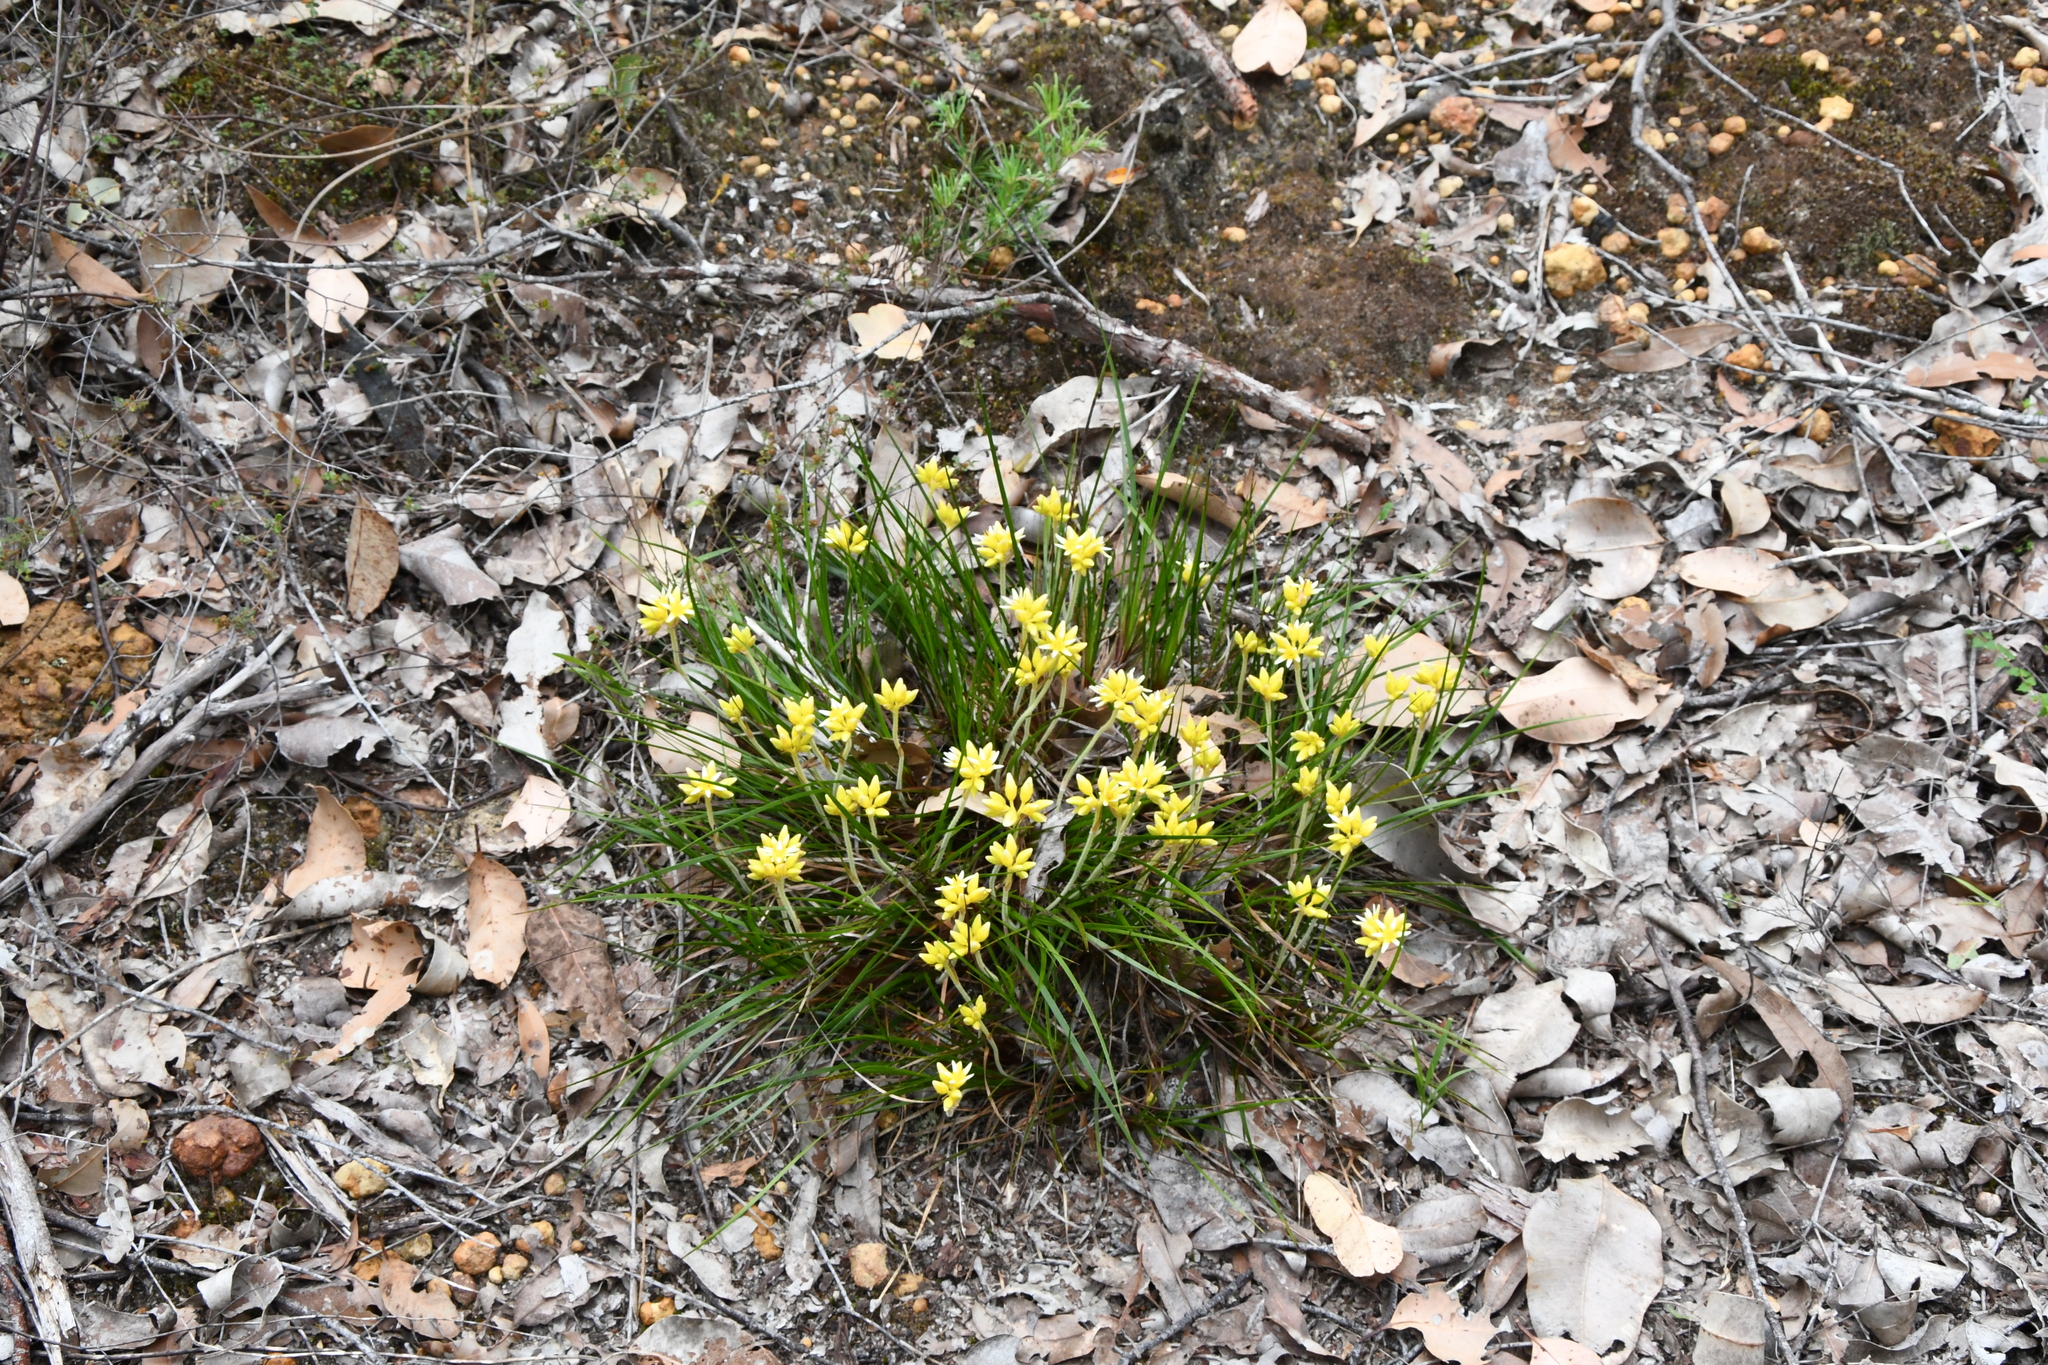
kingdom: Plantae
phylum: Tracheophyta
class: Liliopsida
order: Commelinales
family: Haemodoraceae
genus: Conostylis
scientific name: Conostylis laxiflora
